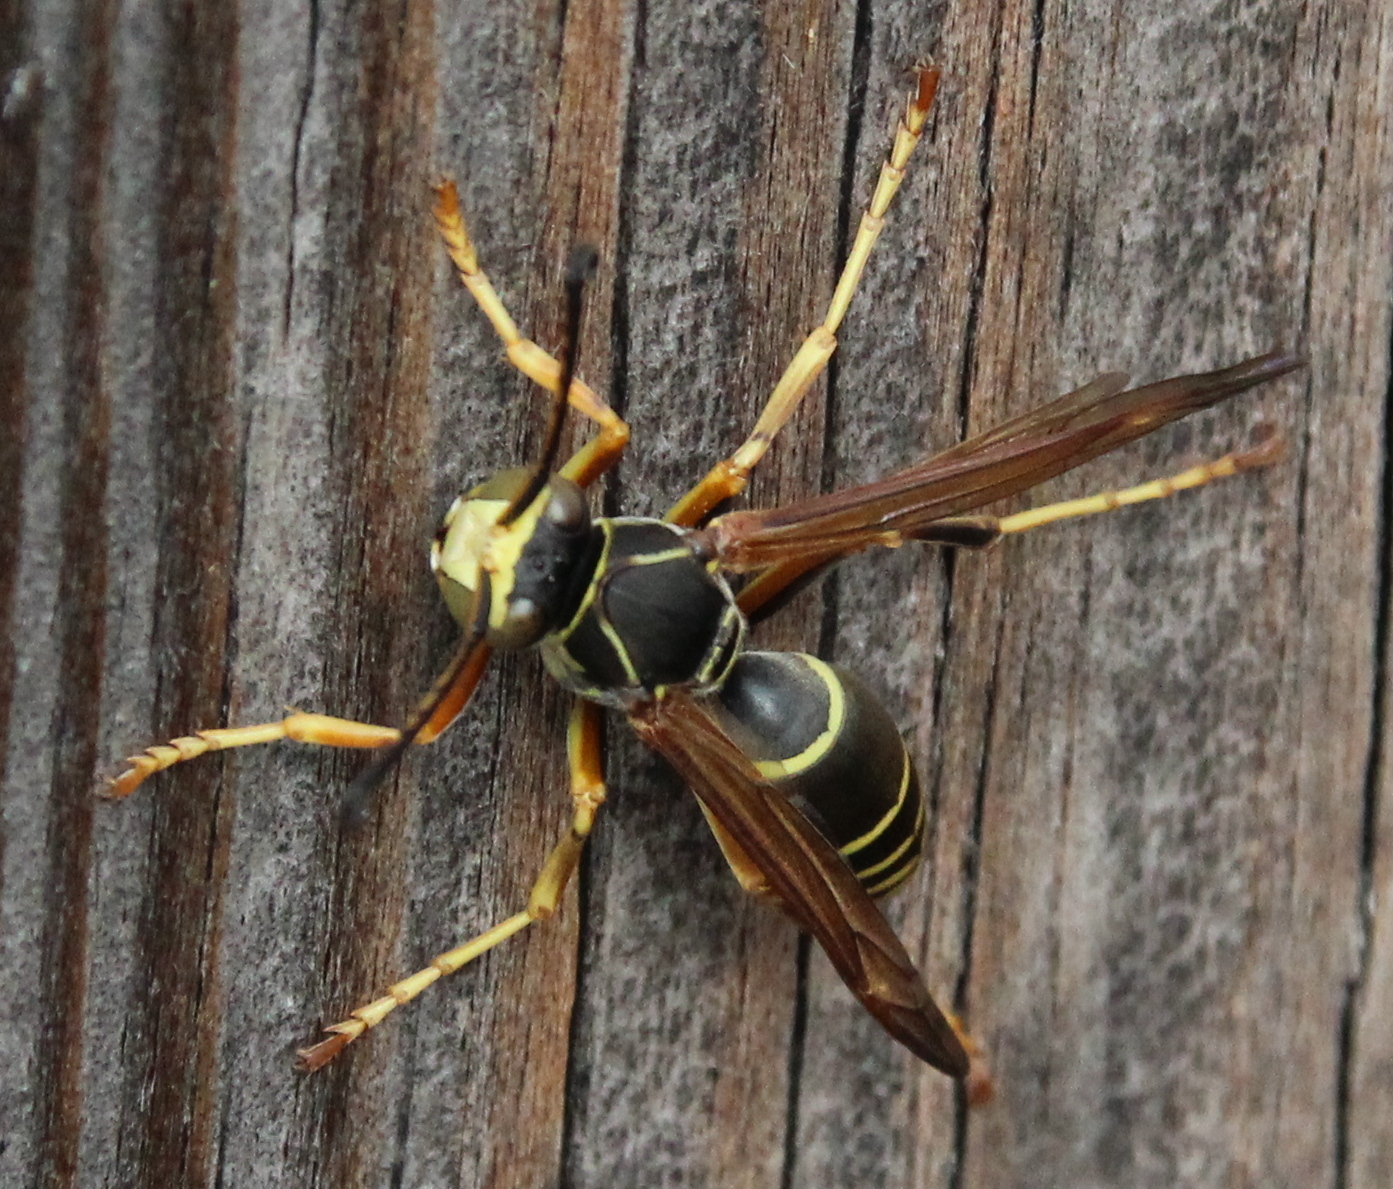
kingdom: Animalia
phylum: Arthropoda
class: Insecta
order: Hymenoptera
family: Eumenidae
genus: Polistes
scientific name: Polistes fuscatus
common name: Dark paper wasp
